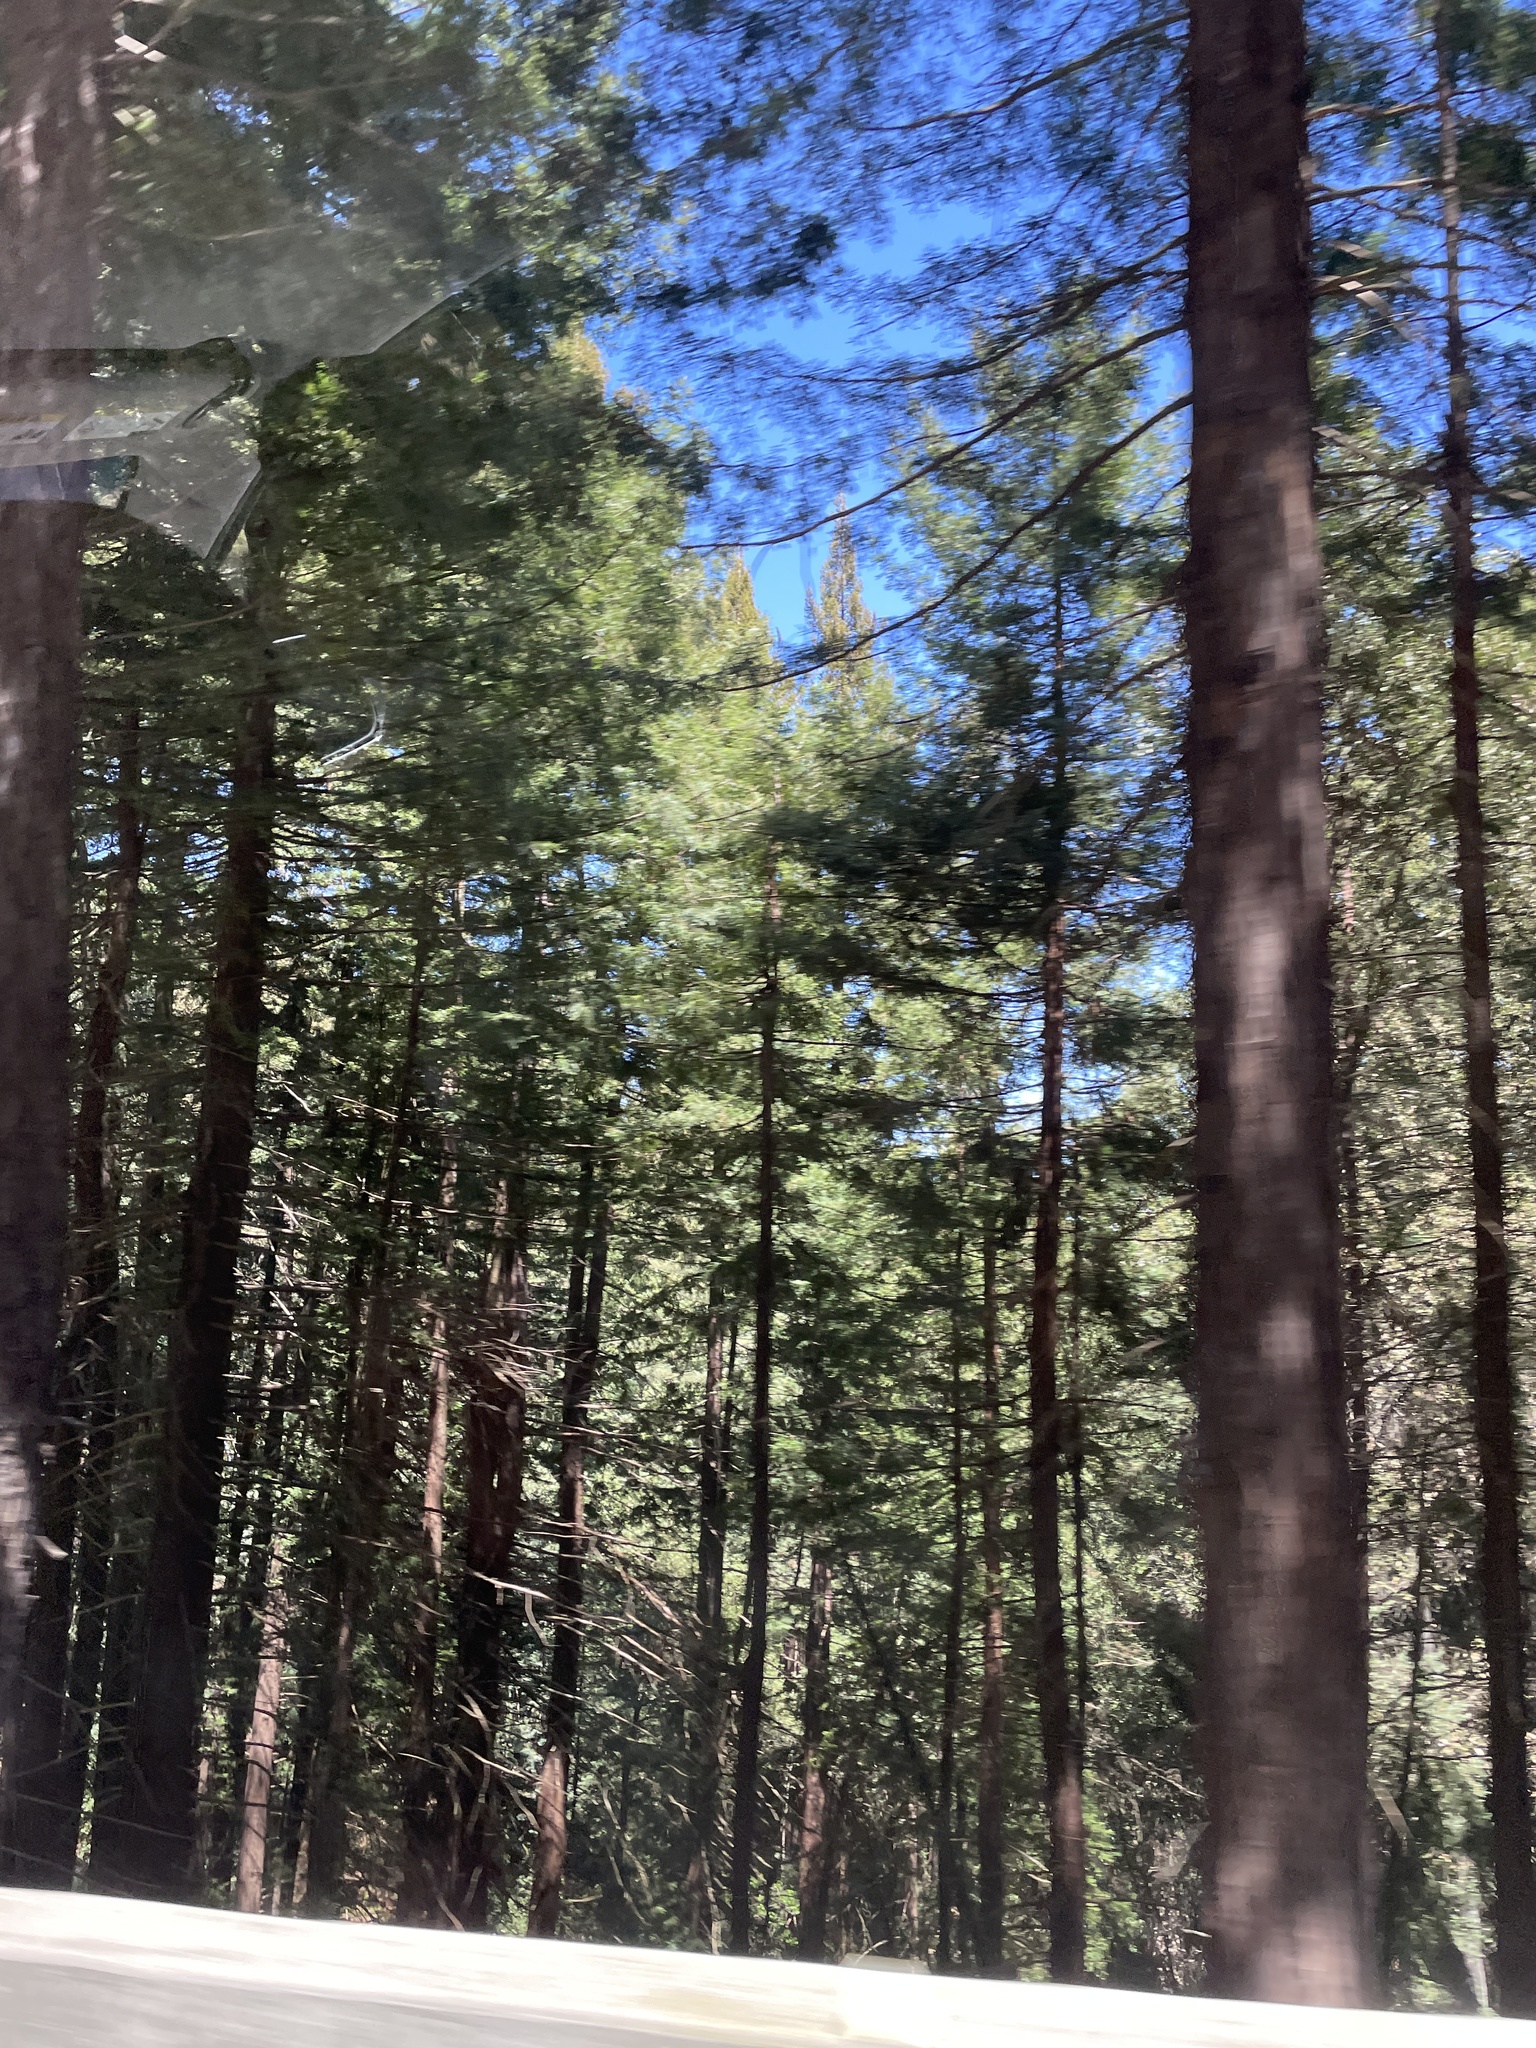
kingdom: Plantae
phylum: Tracheophyta
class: Pinopsida
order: Pinales
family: Cupressaceae
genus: Sequoia
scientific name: Sequoia sempervirens
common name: Coast redwood
